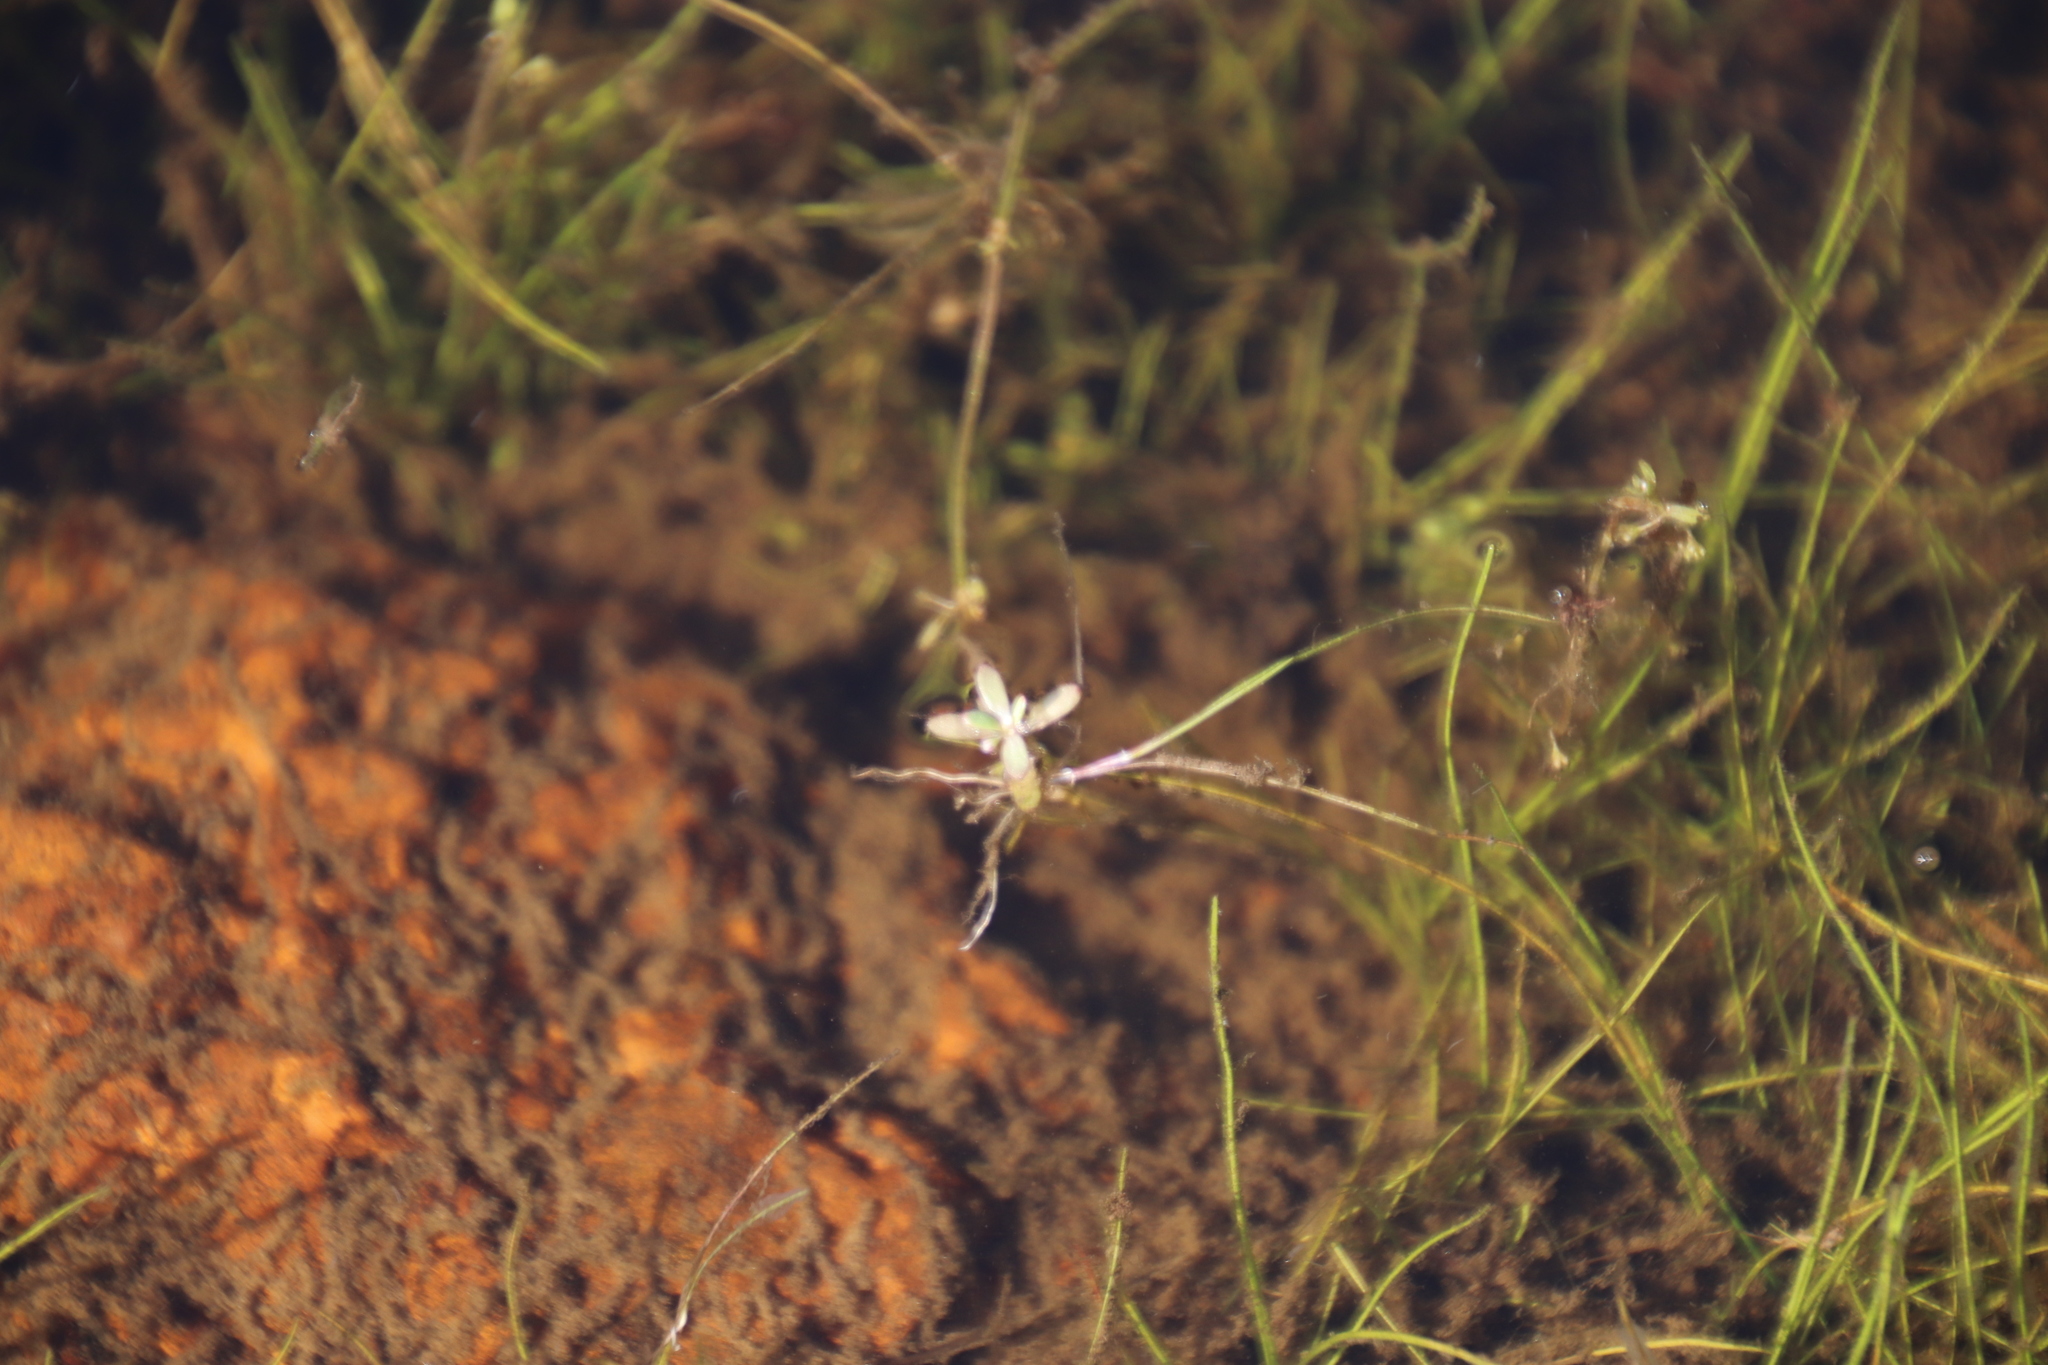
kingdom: Plantae
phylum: Tracheophyta
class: Magnoliopsida
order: Saxifragales
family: Crassulaceae
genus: Crassula
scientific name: Crassula natans
